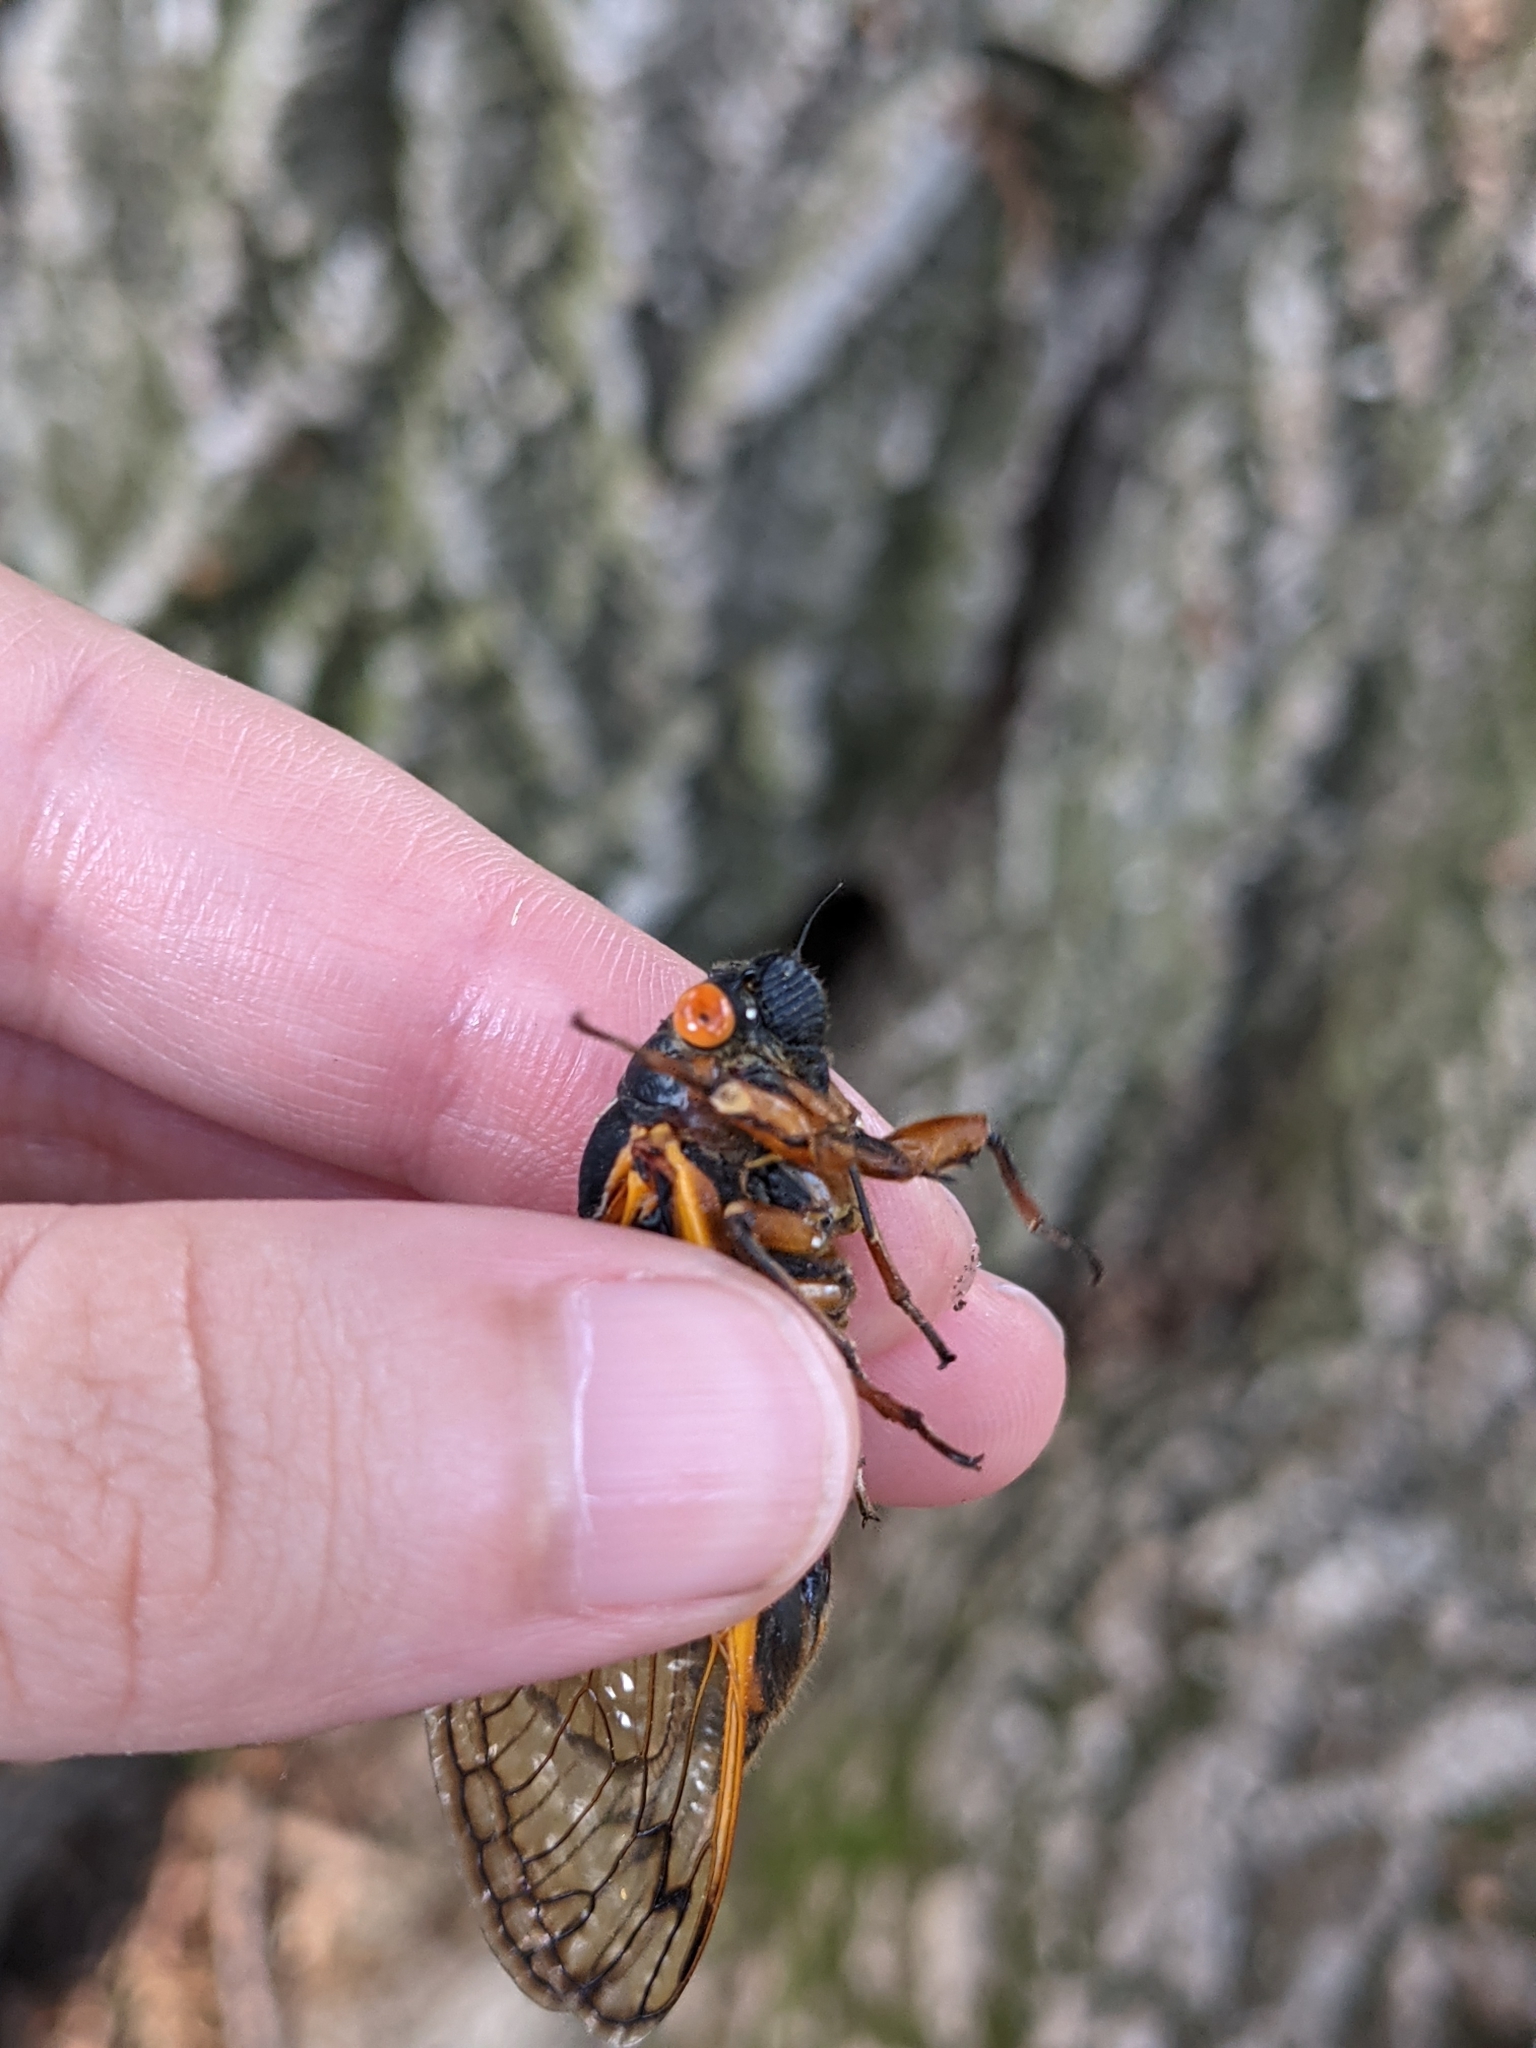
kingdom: Animalia
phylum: Arthropoda
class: Insecta
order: Hemiptera
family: Cicadidae
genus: Magicicada
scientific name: Magicicada septendecim
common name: Periodical cicada
